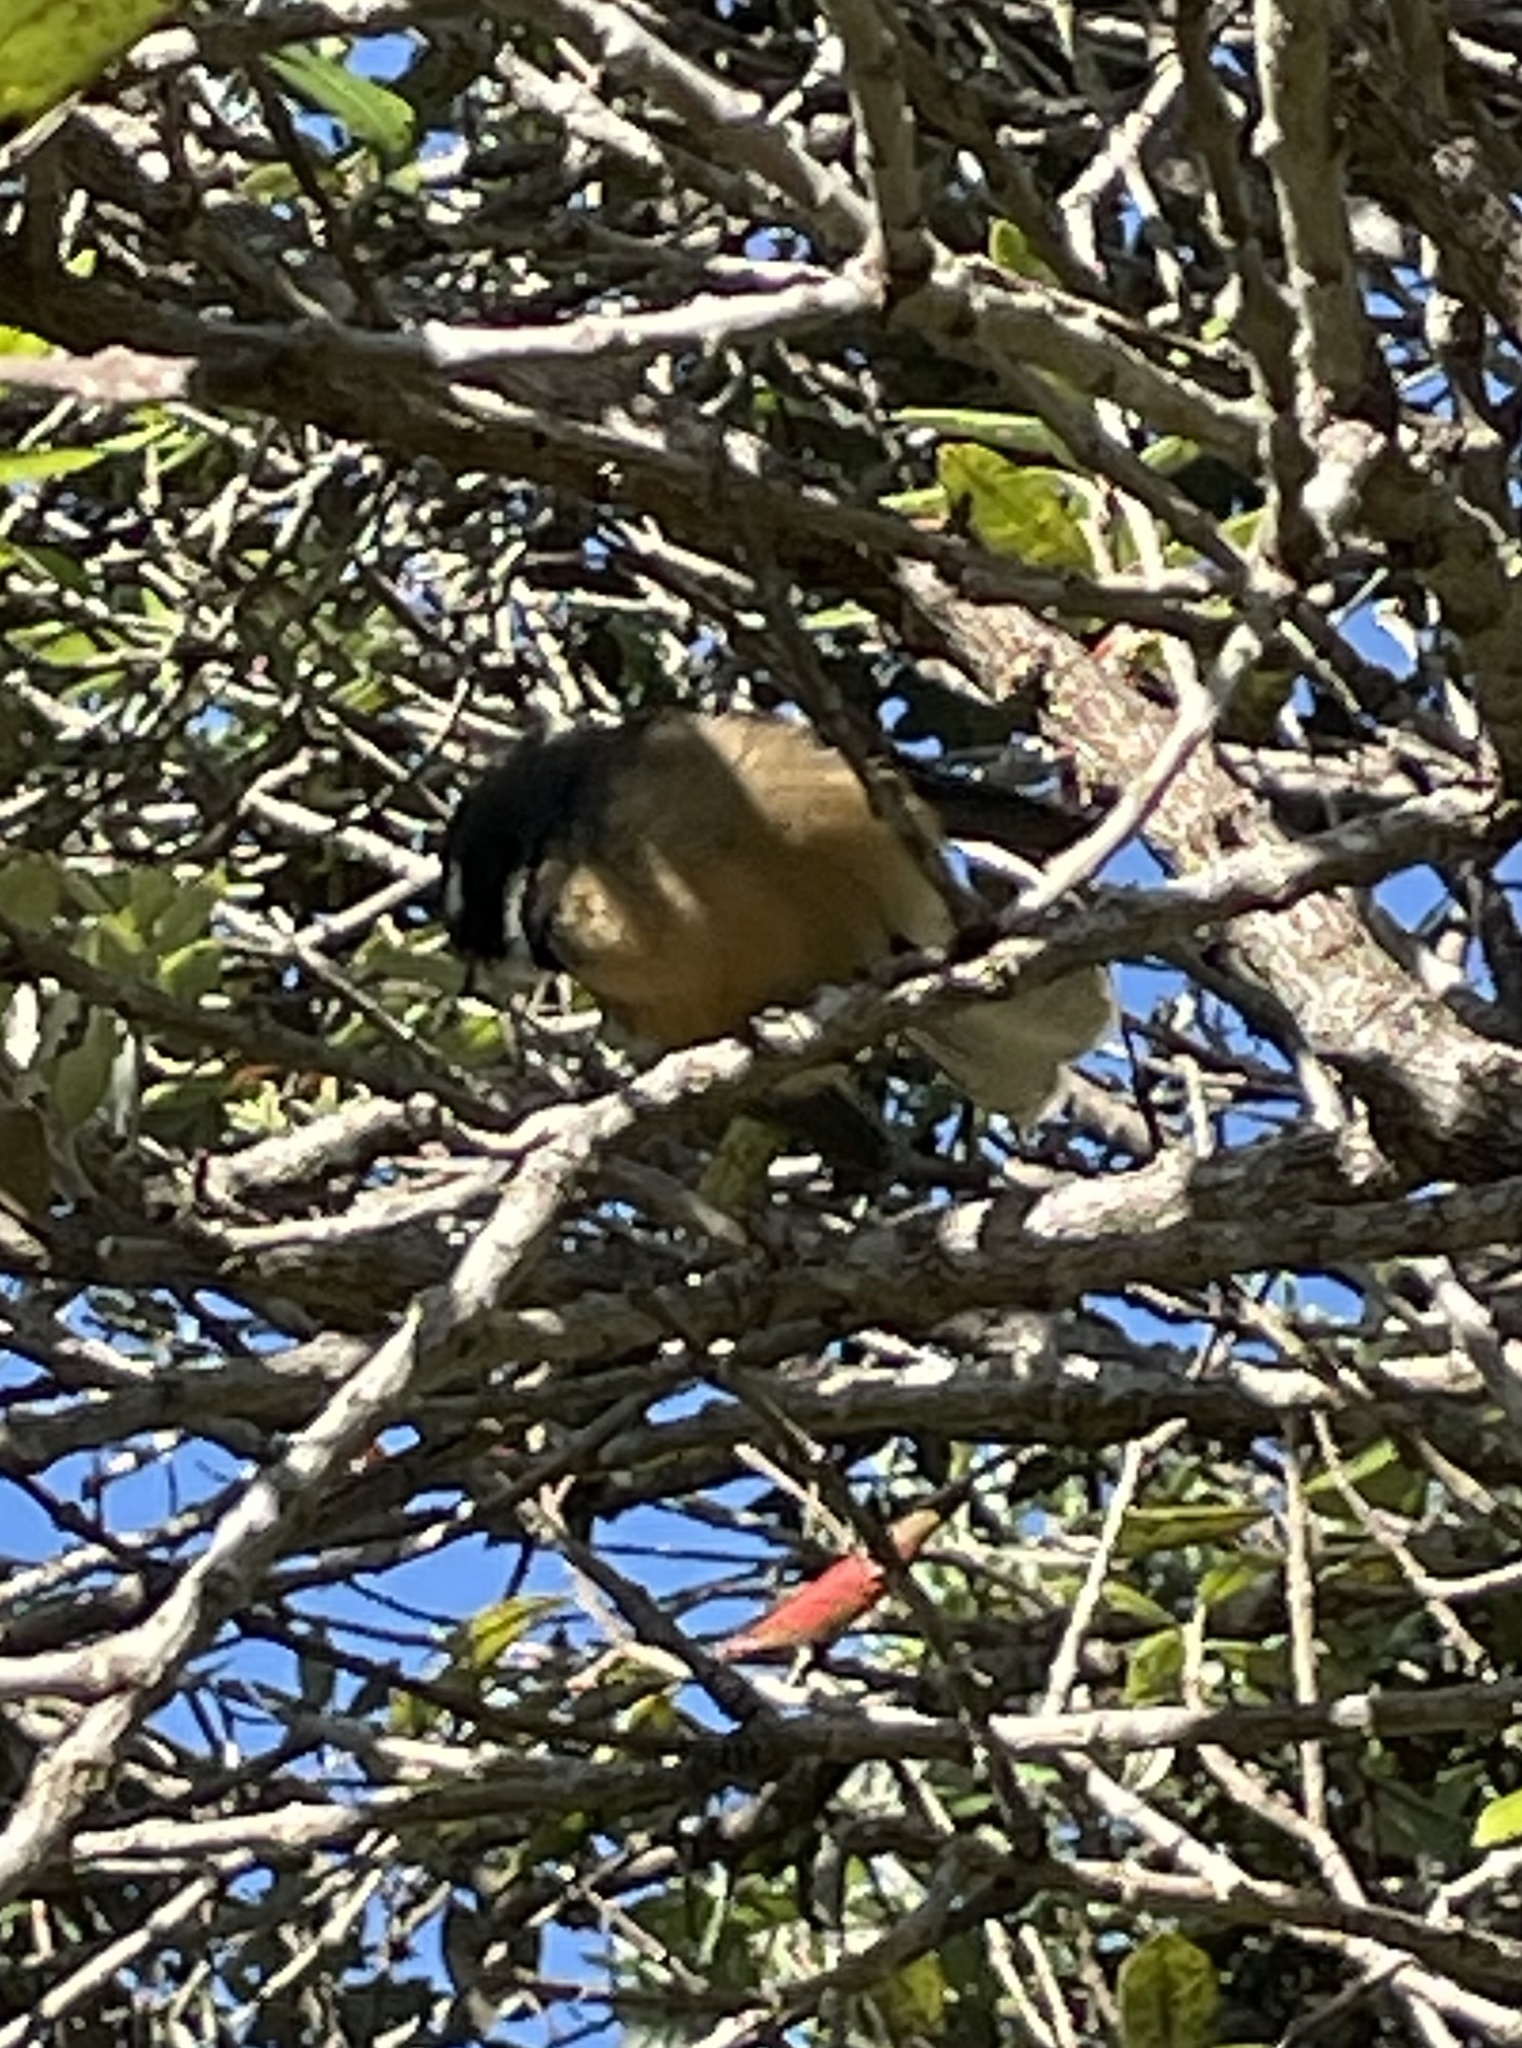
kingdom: Animalia
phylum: Chordata
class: Aves
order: Passeriformes
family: Rhipiduridae
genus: Rhipidura
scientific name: Rhipidura fuliginosa
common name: New zealand fantail
